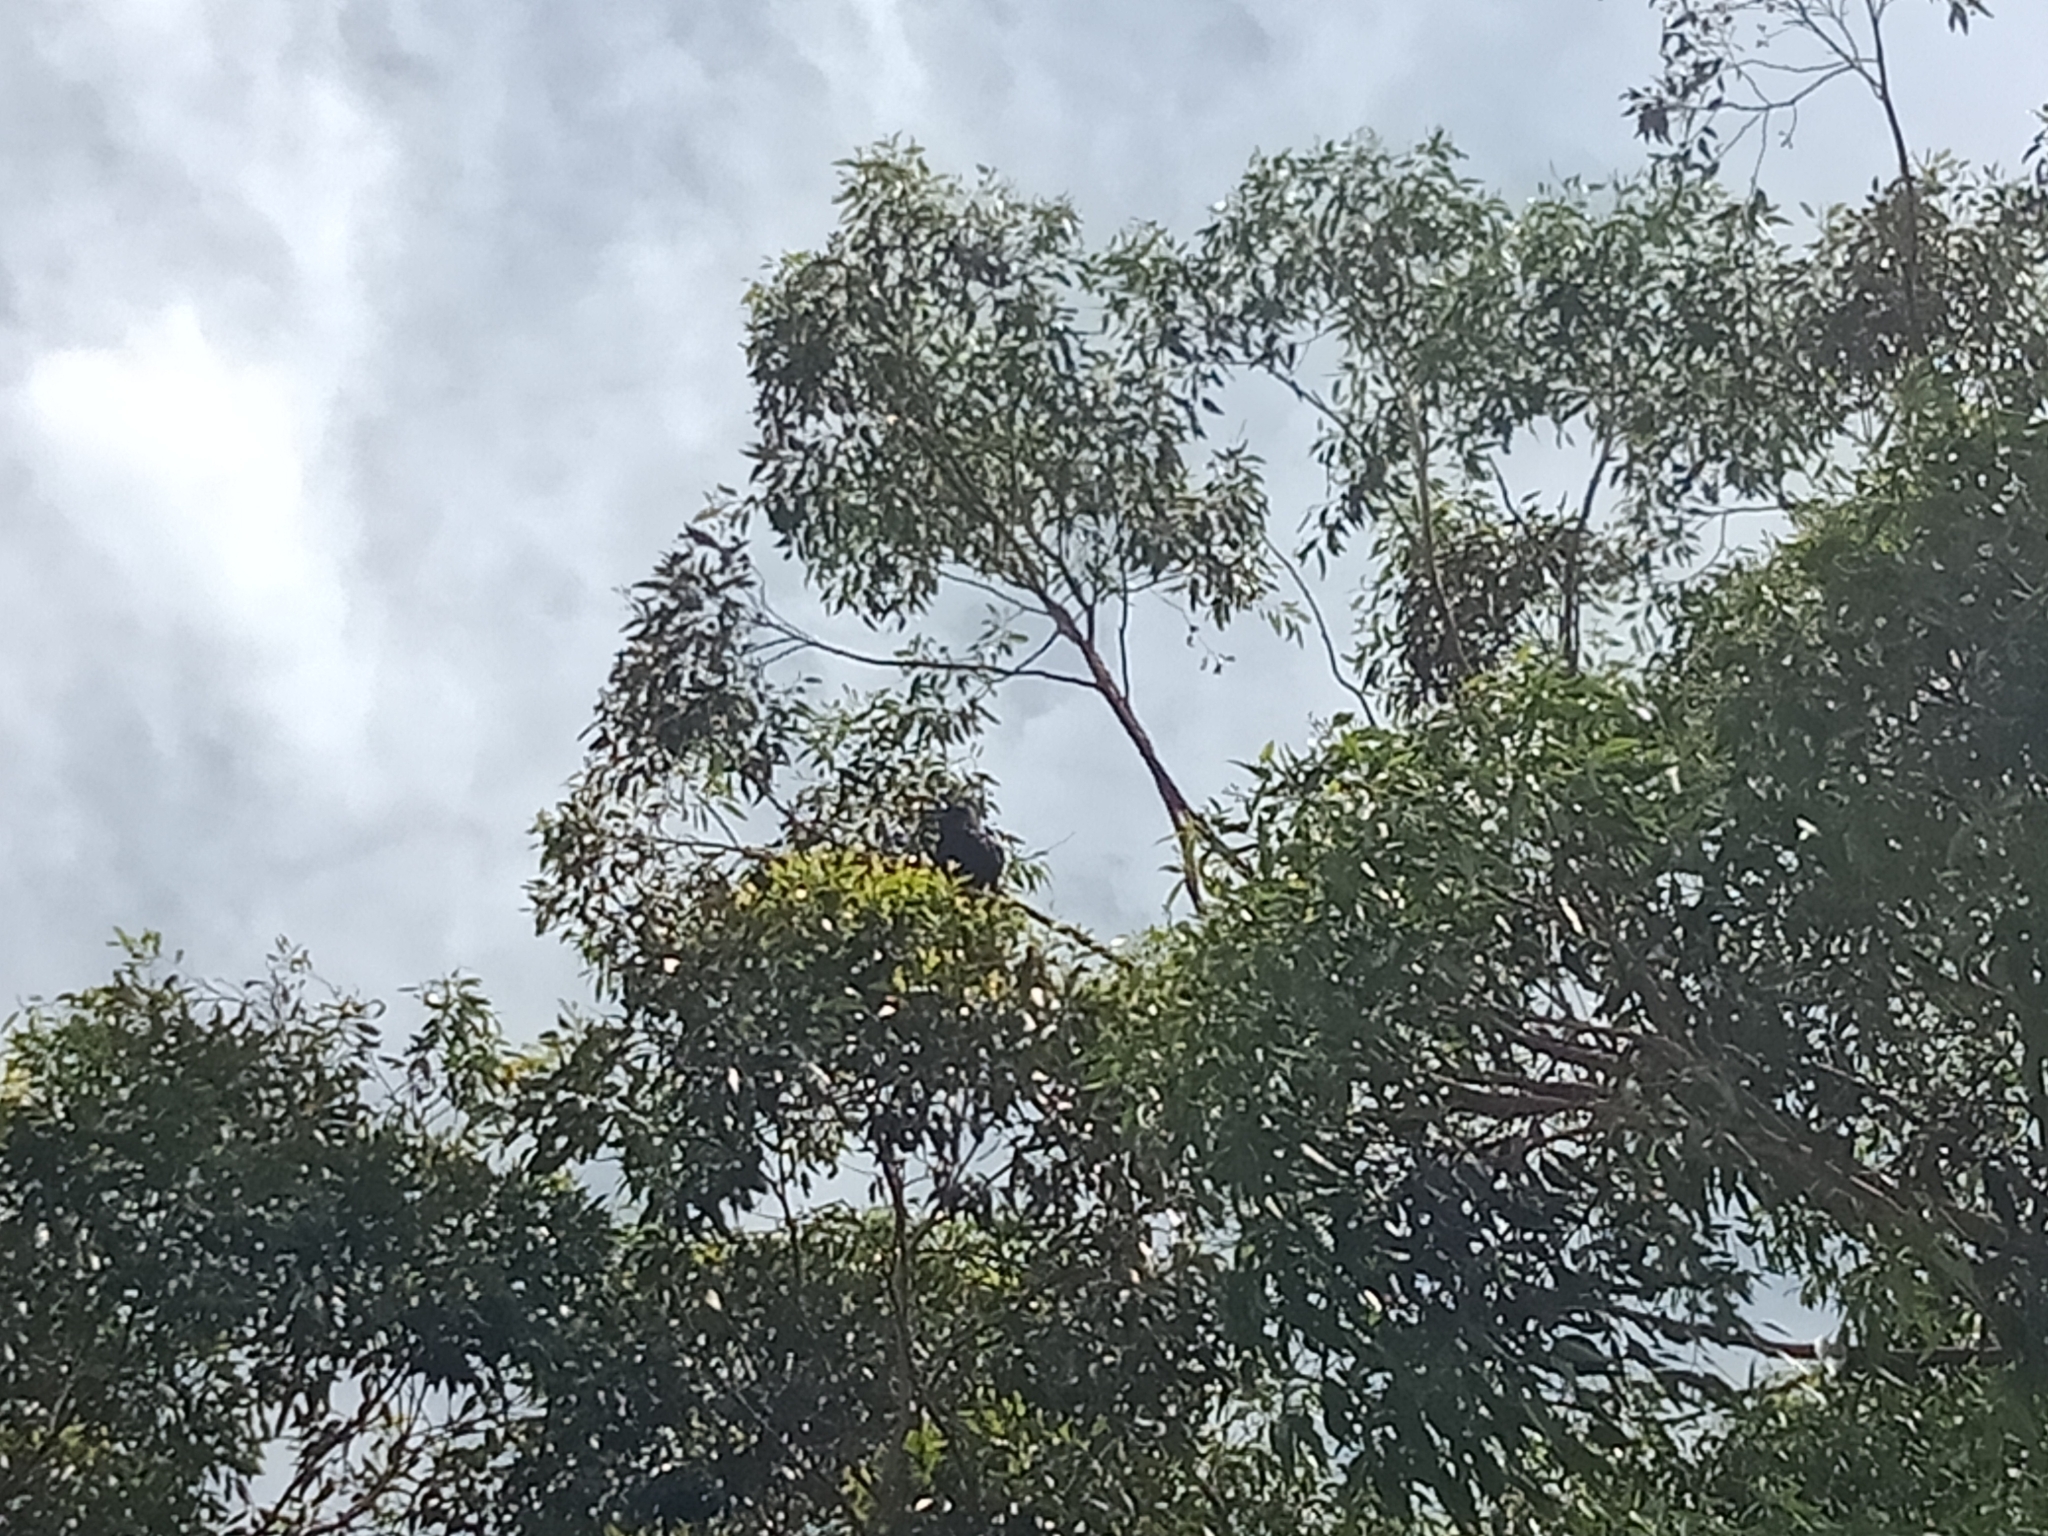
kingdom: Animalia
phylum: Chordata
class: Aves
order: Passeriformes
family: Corvidae
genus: Corvus
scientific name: Corvus coronoides
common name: Australian raven
